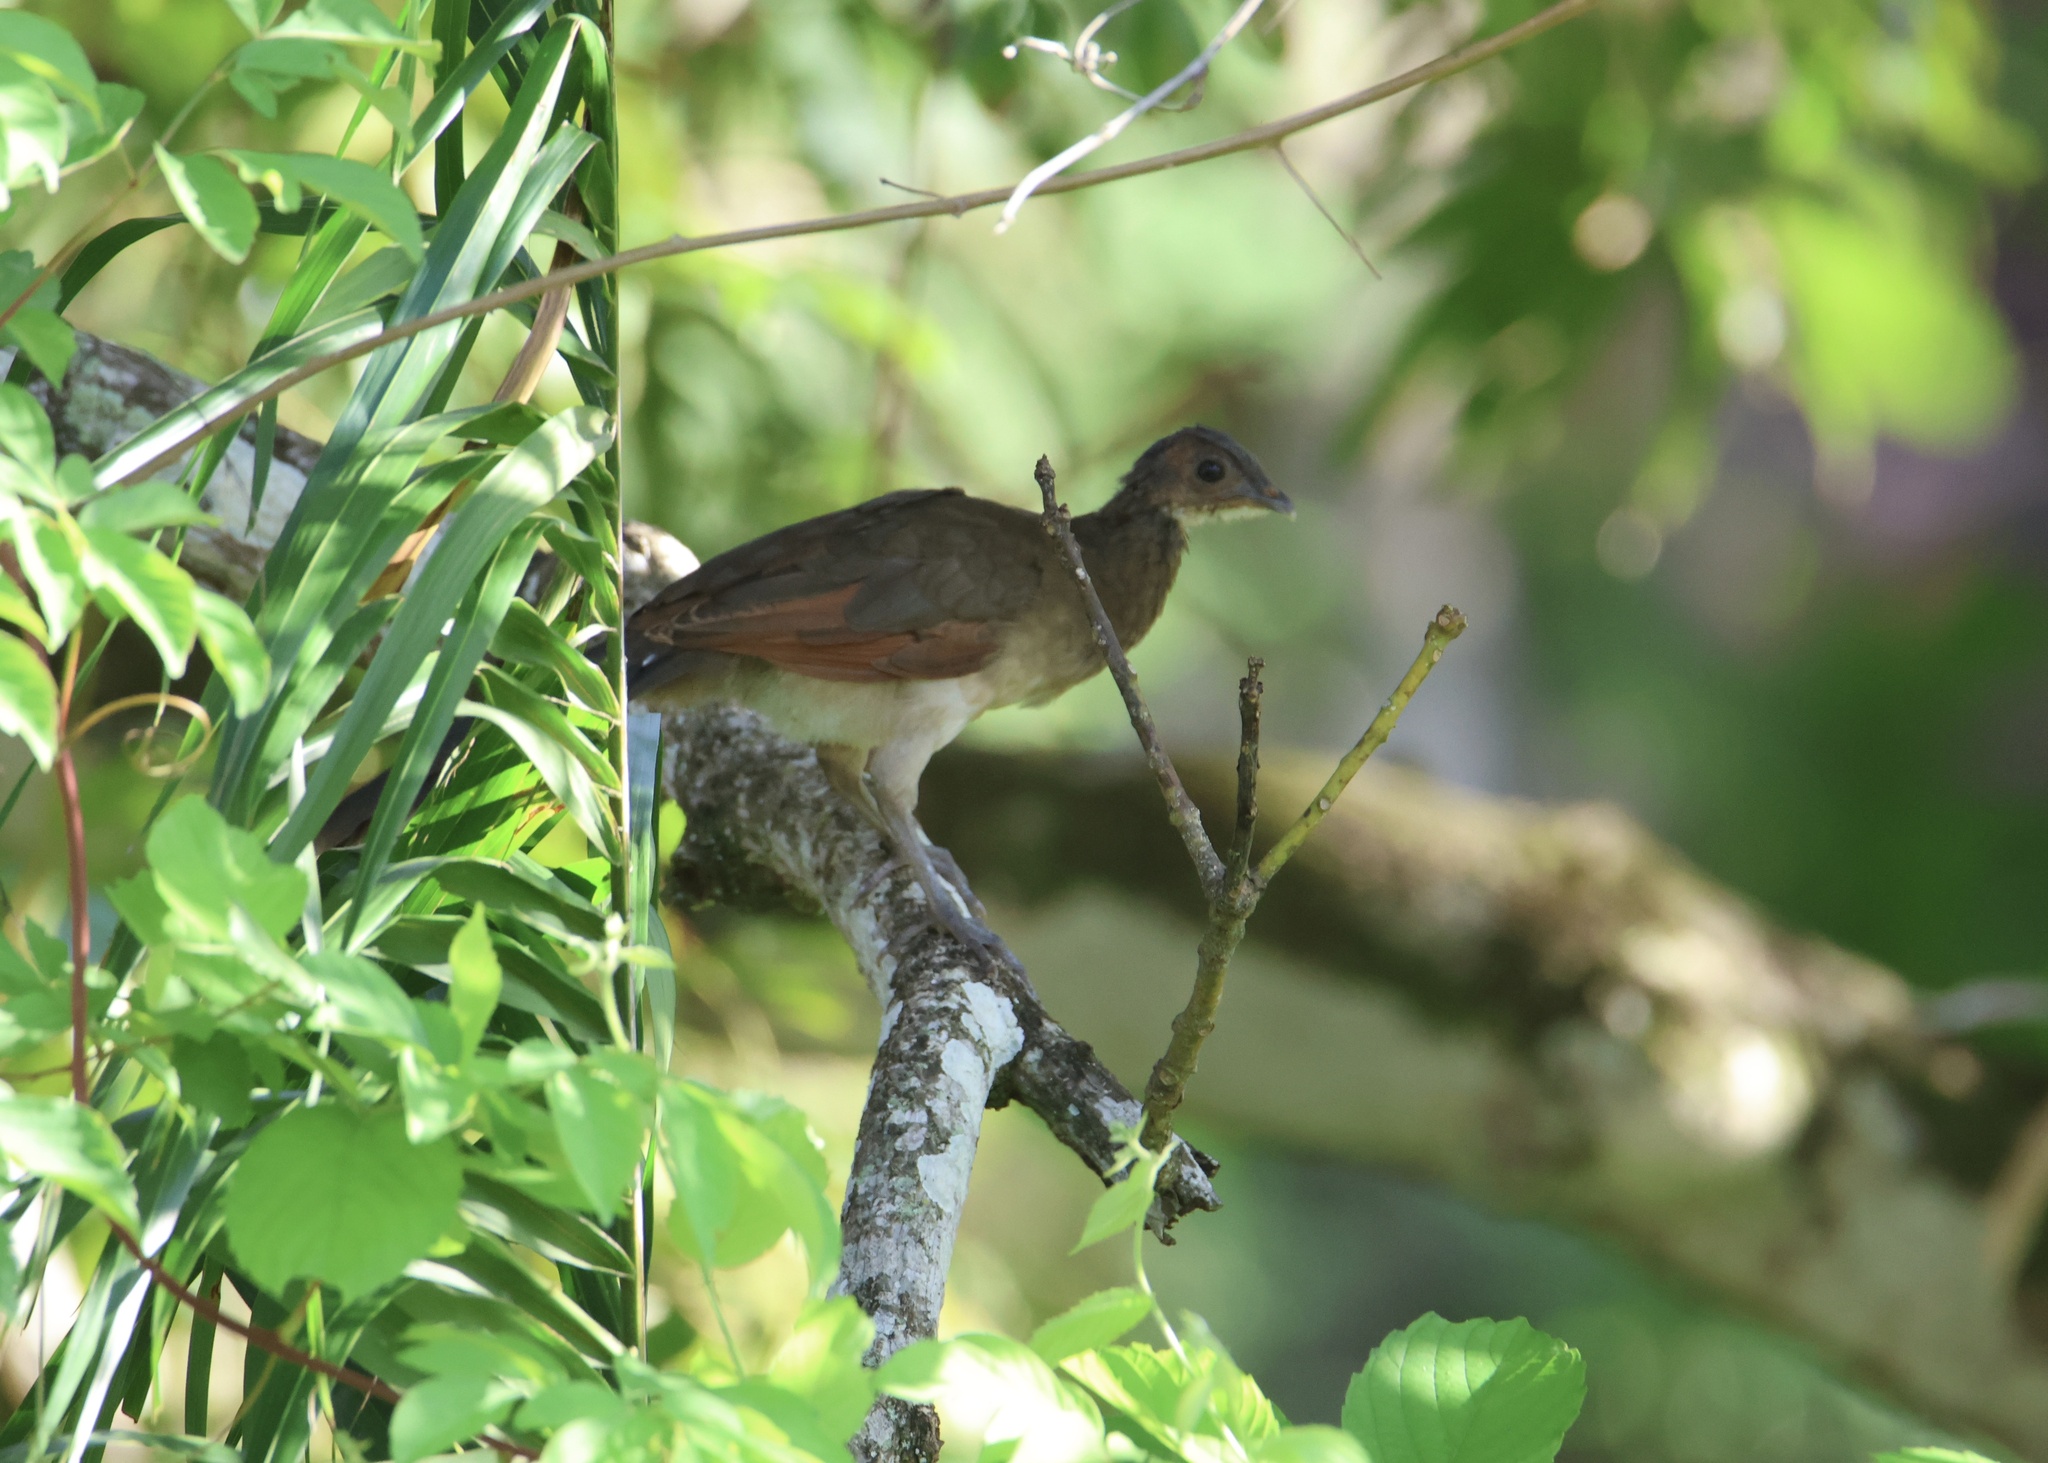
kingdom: Animalia
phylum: Chordata
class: Aves
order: Galliformes
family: Cracidae
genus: Ortalis
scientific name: Ortalis cinereiceps
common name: Grey-headed chachalaca
